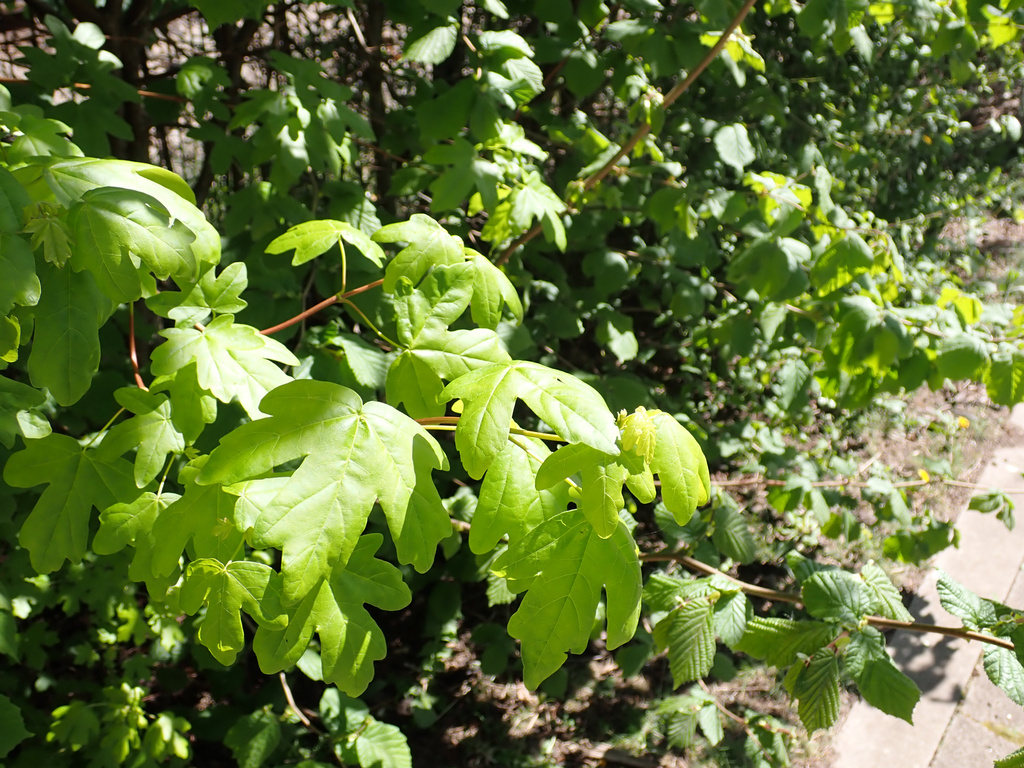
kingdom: Plantae
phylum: Tracheophyta
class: Magnoliopsida
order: Sapindales
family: Sapindaceae
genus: Acer
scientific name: Acer campestre
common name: Field maple
